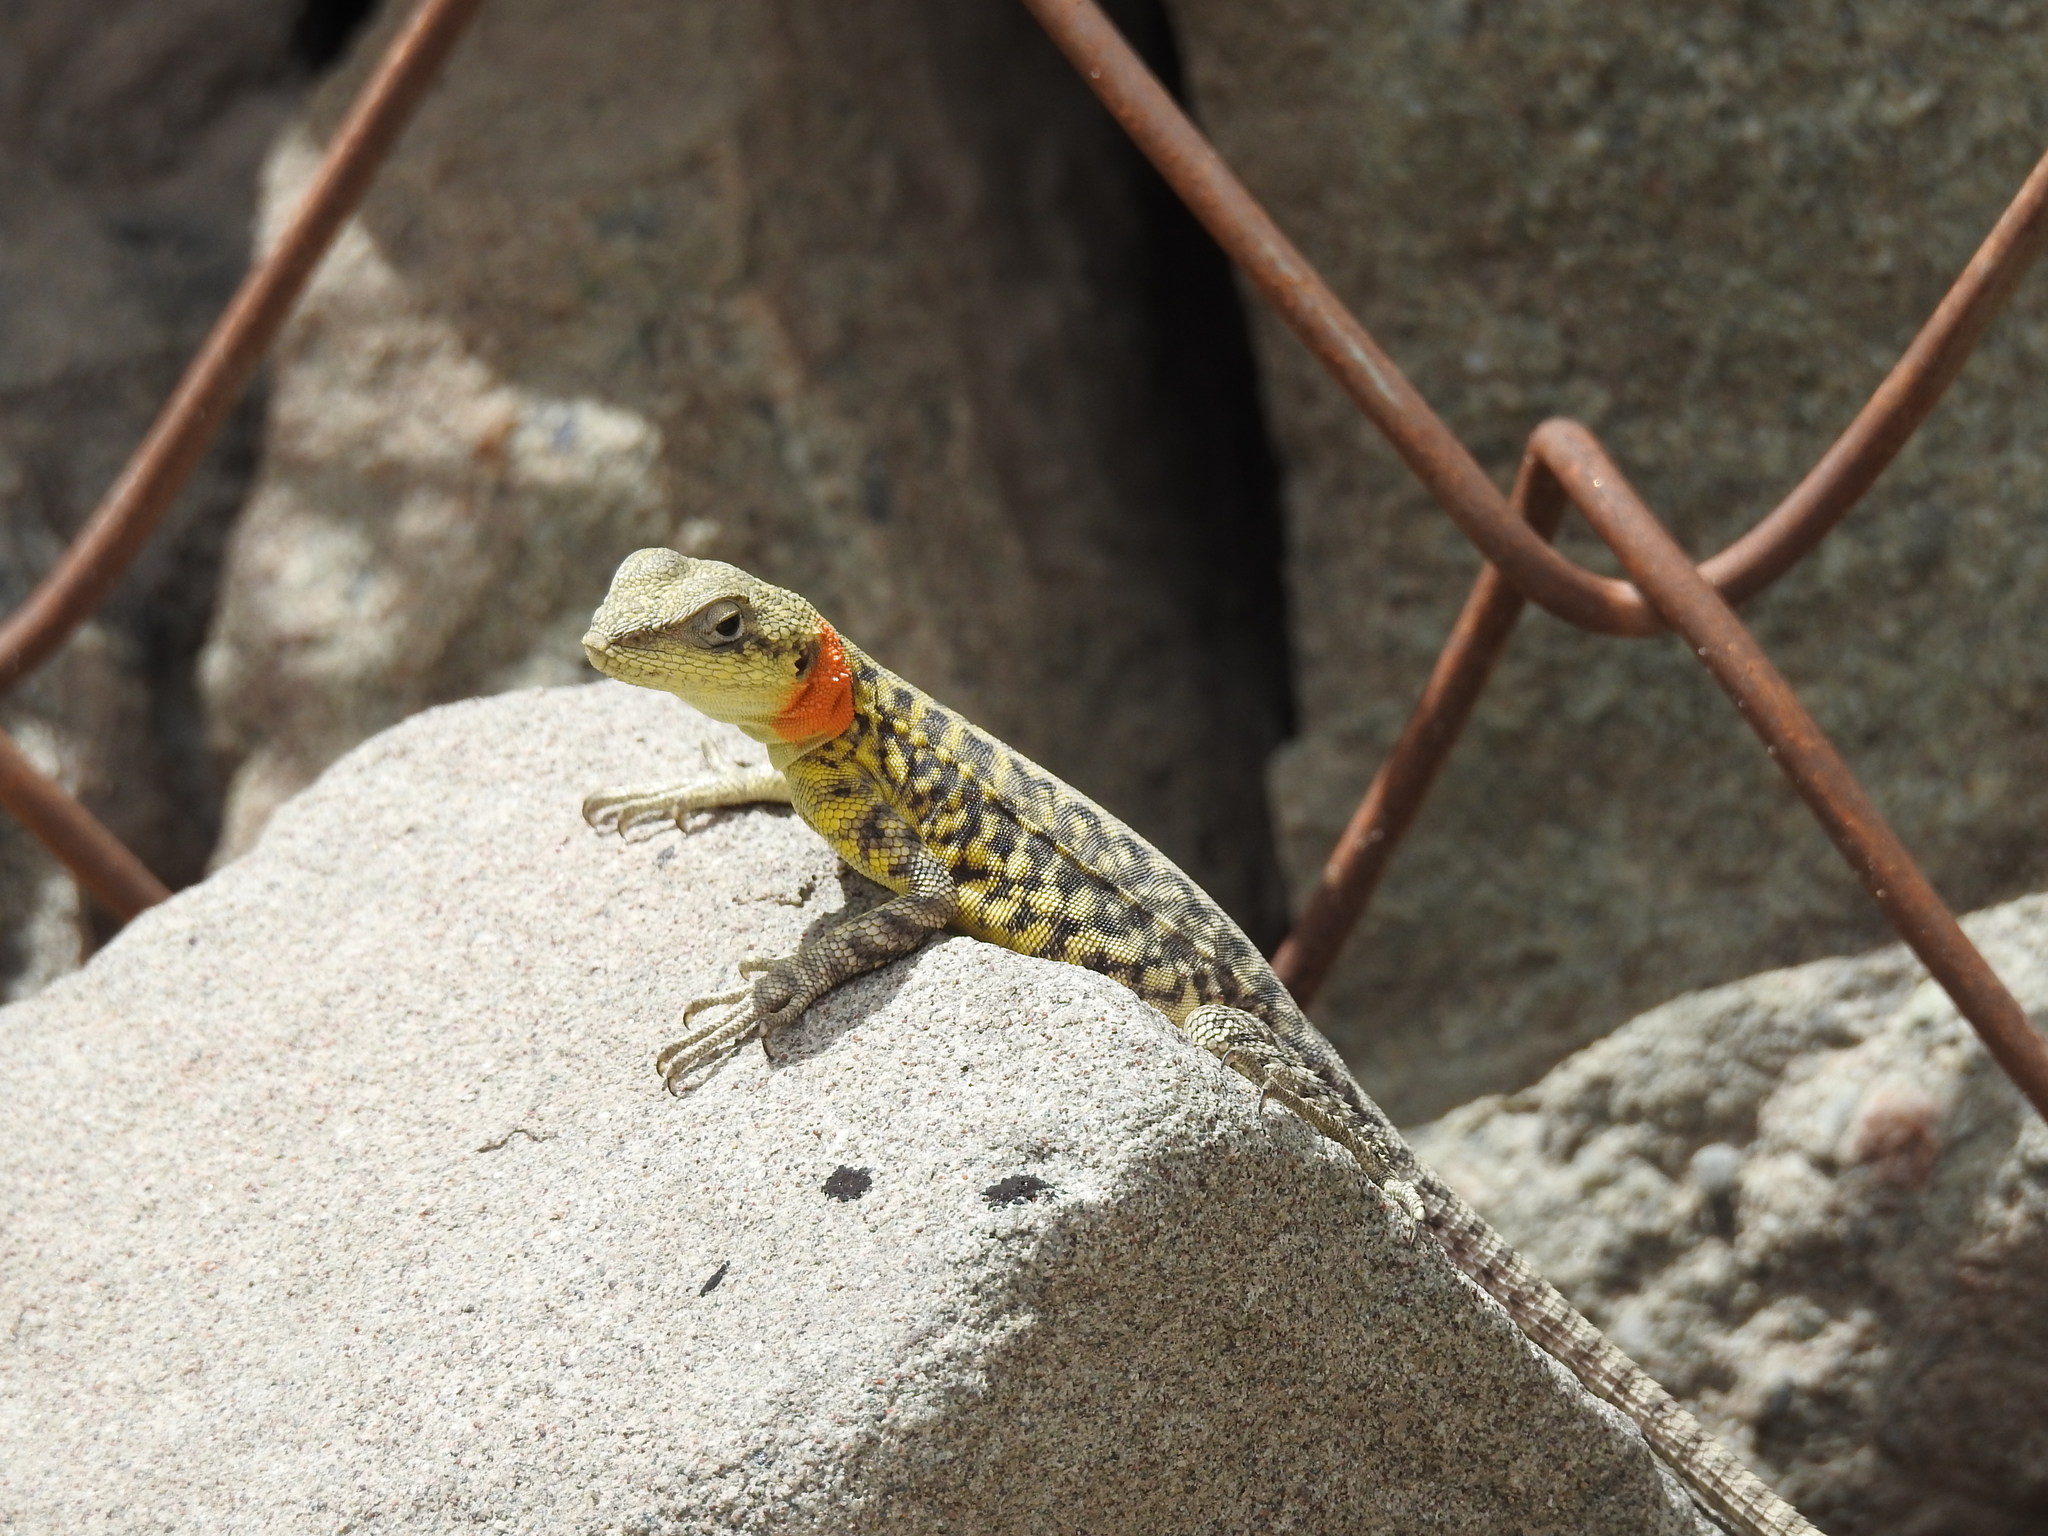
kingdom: Animalia
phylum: Chordata
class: Squamata
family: Agamidae
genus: Paralaudakia
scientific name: Paralaudakia himalayana
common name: Himalayan agama
